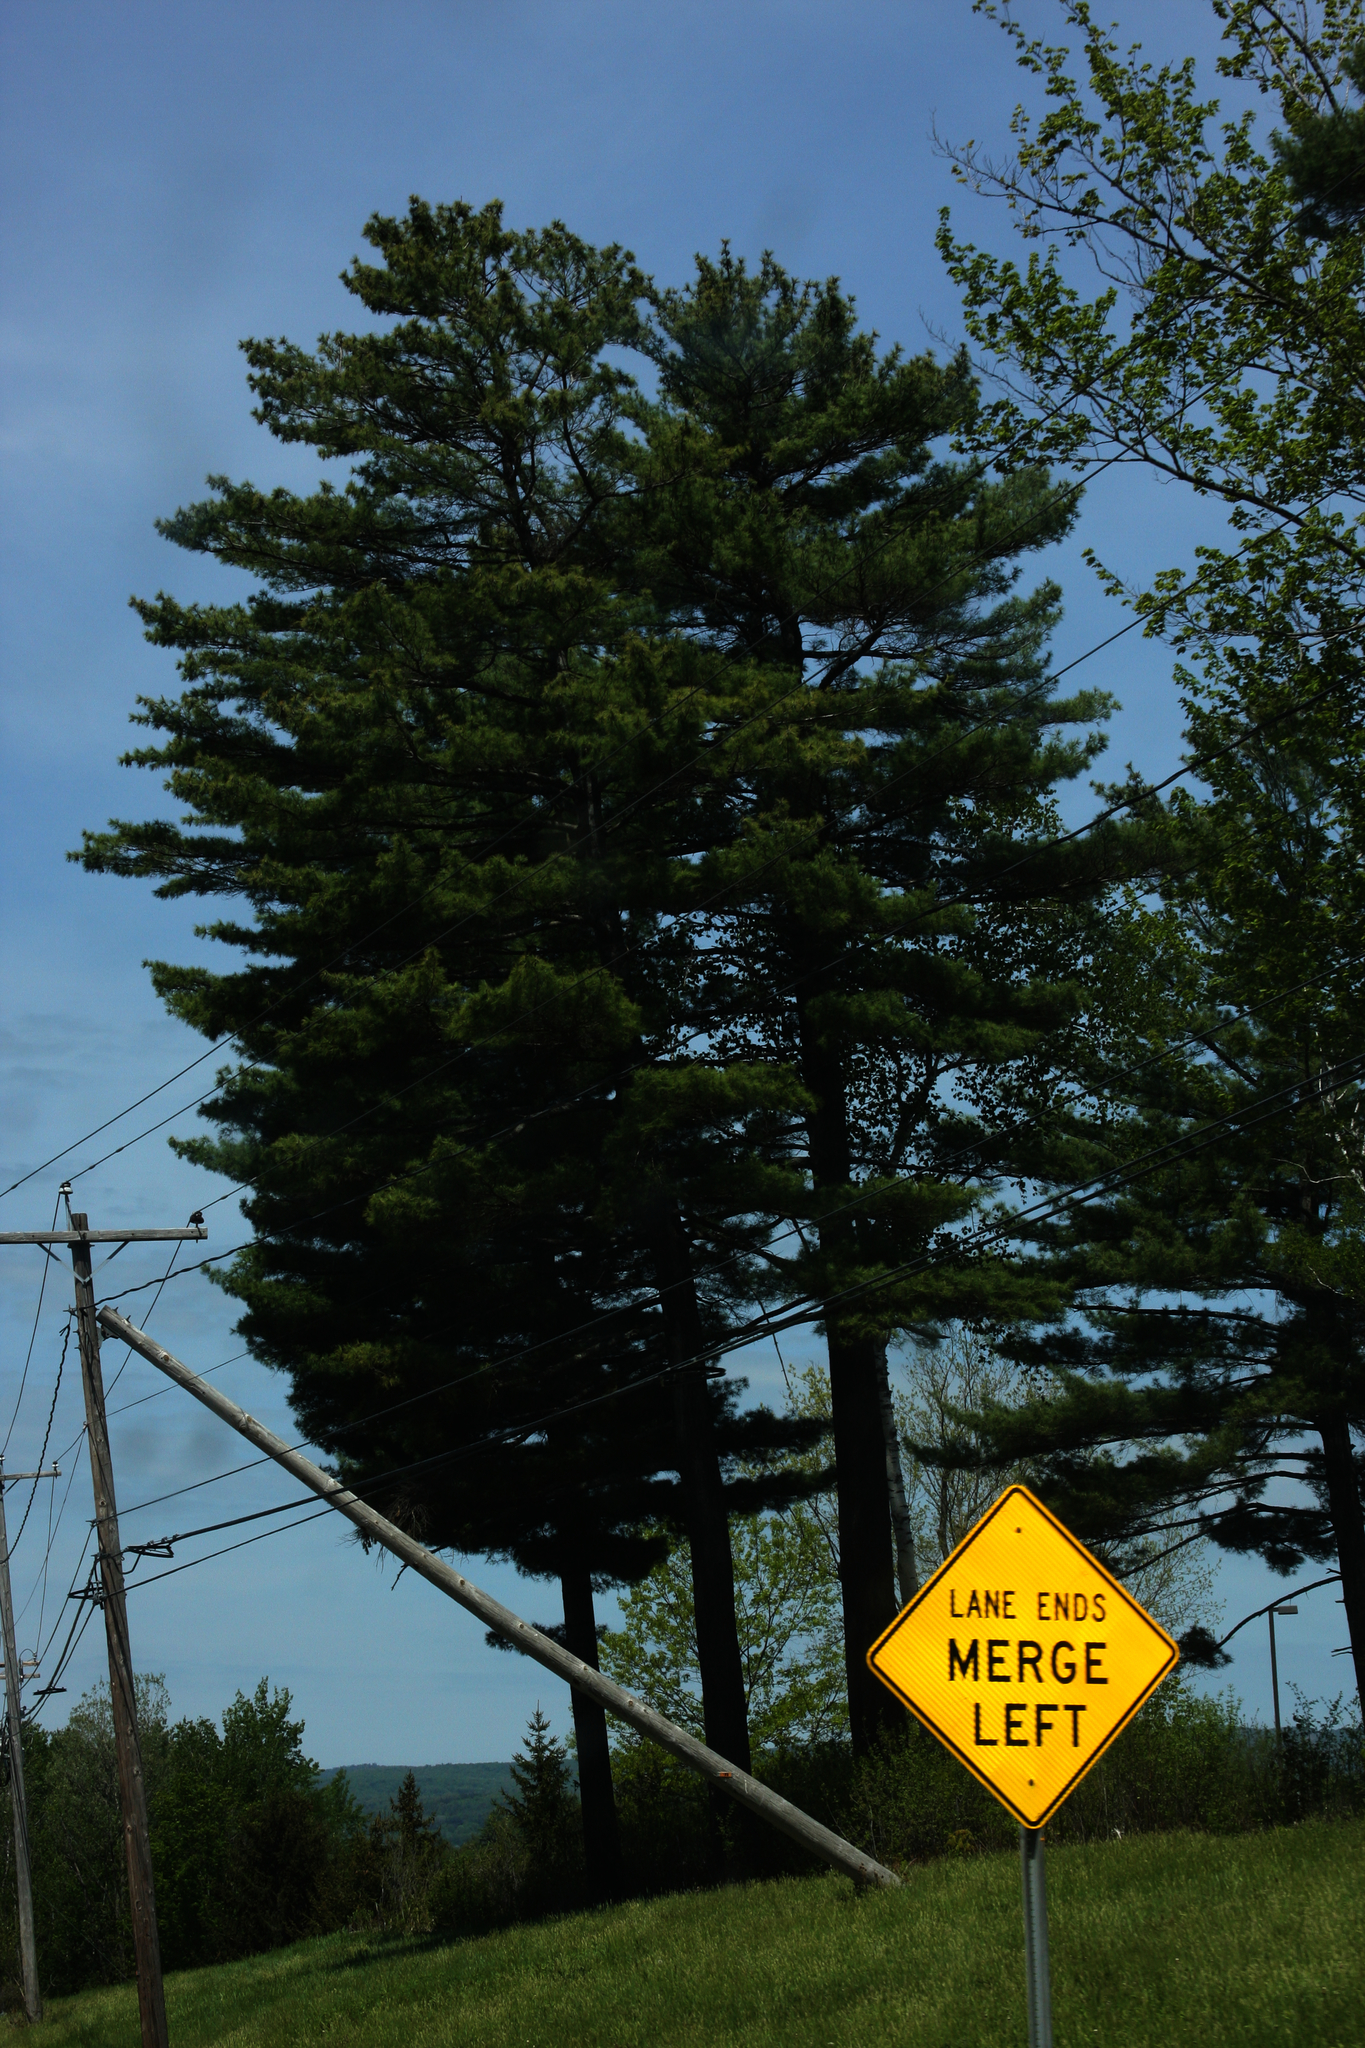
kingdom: Plantae
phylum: Tracheophyta
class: Pinopsida
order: Pinales
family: Pinaceae
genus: Pinus
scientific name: Pinus strobus
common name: Weymouth pine
